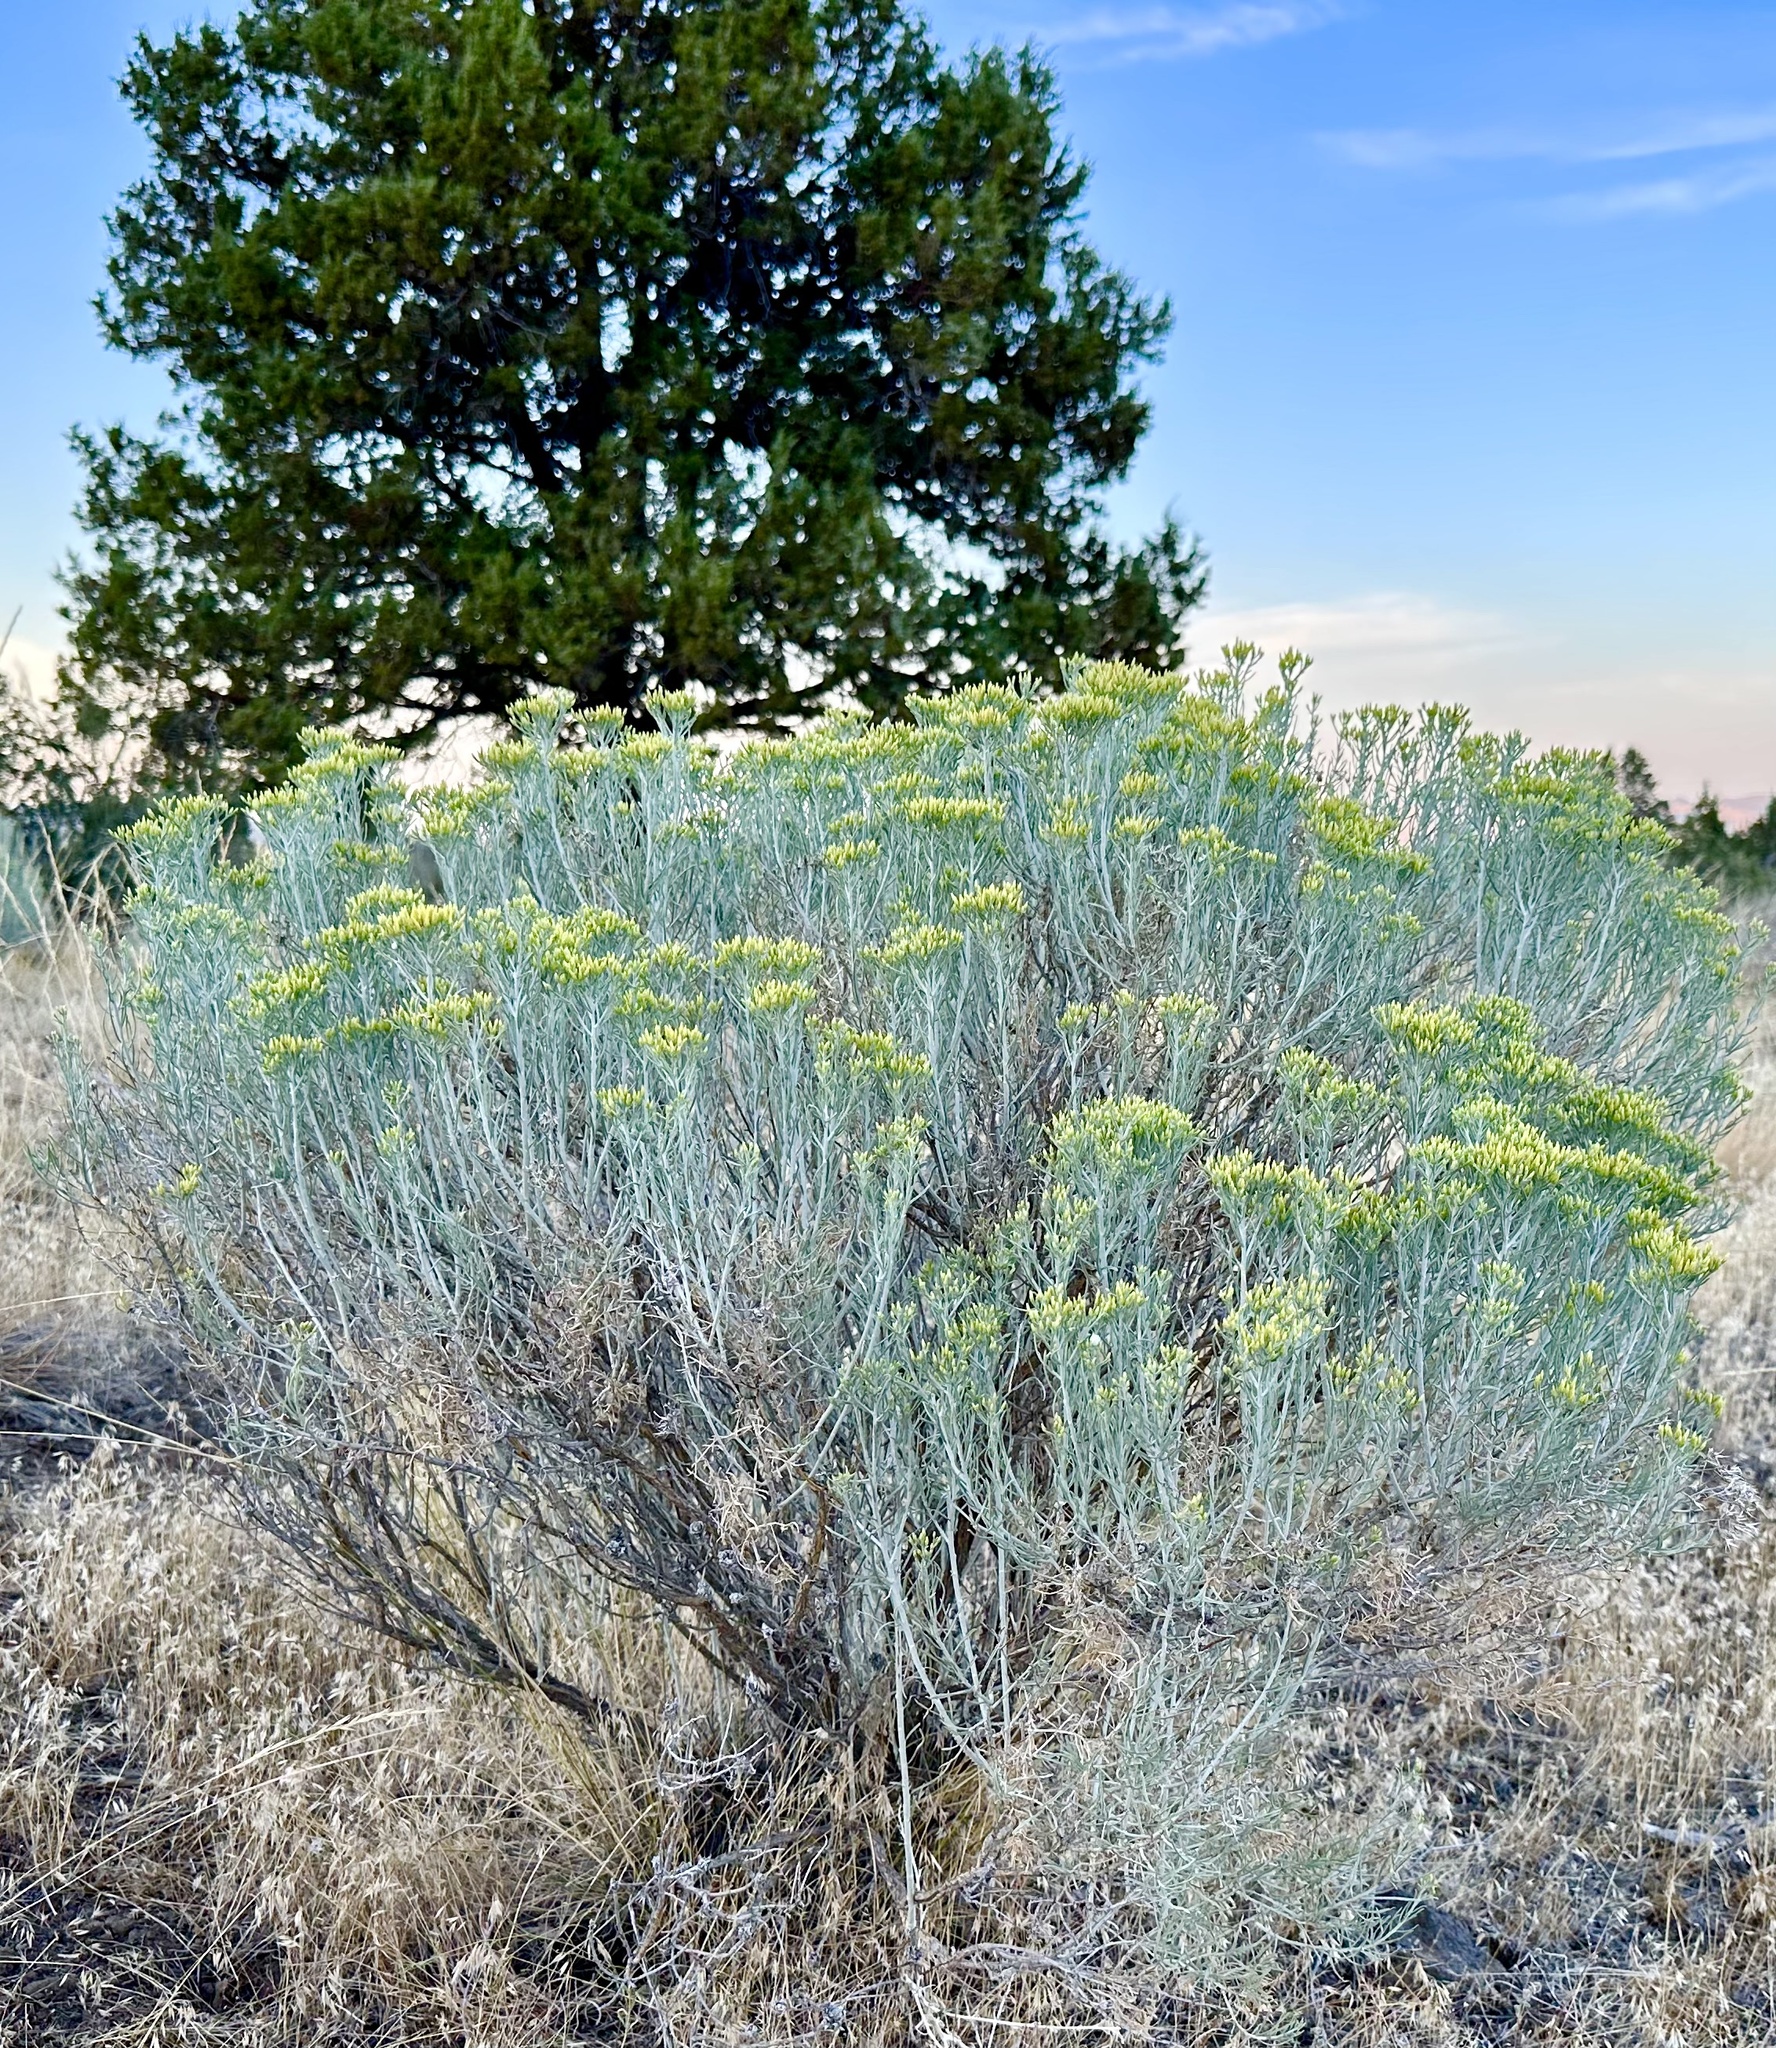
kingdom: Plantae
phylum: Tracheophyta
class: Magnoliopsida
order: Asterales
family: Asteraceae
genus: Ericameria
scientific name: Ericameria nauseosa
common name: Rubber rabbitbrush
